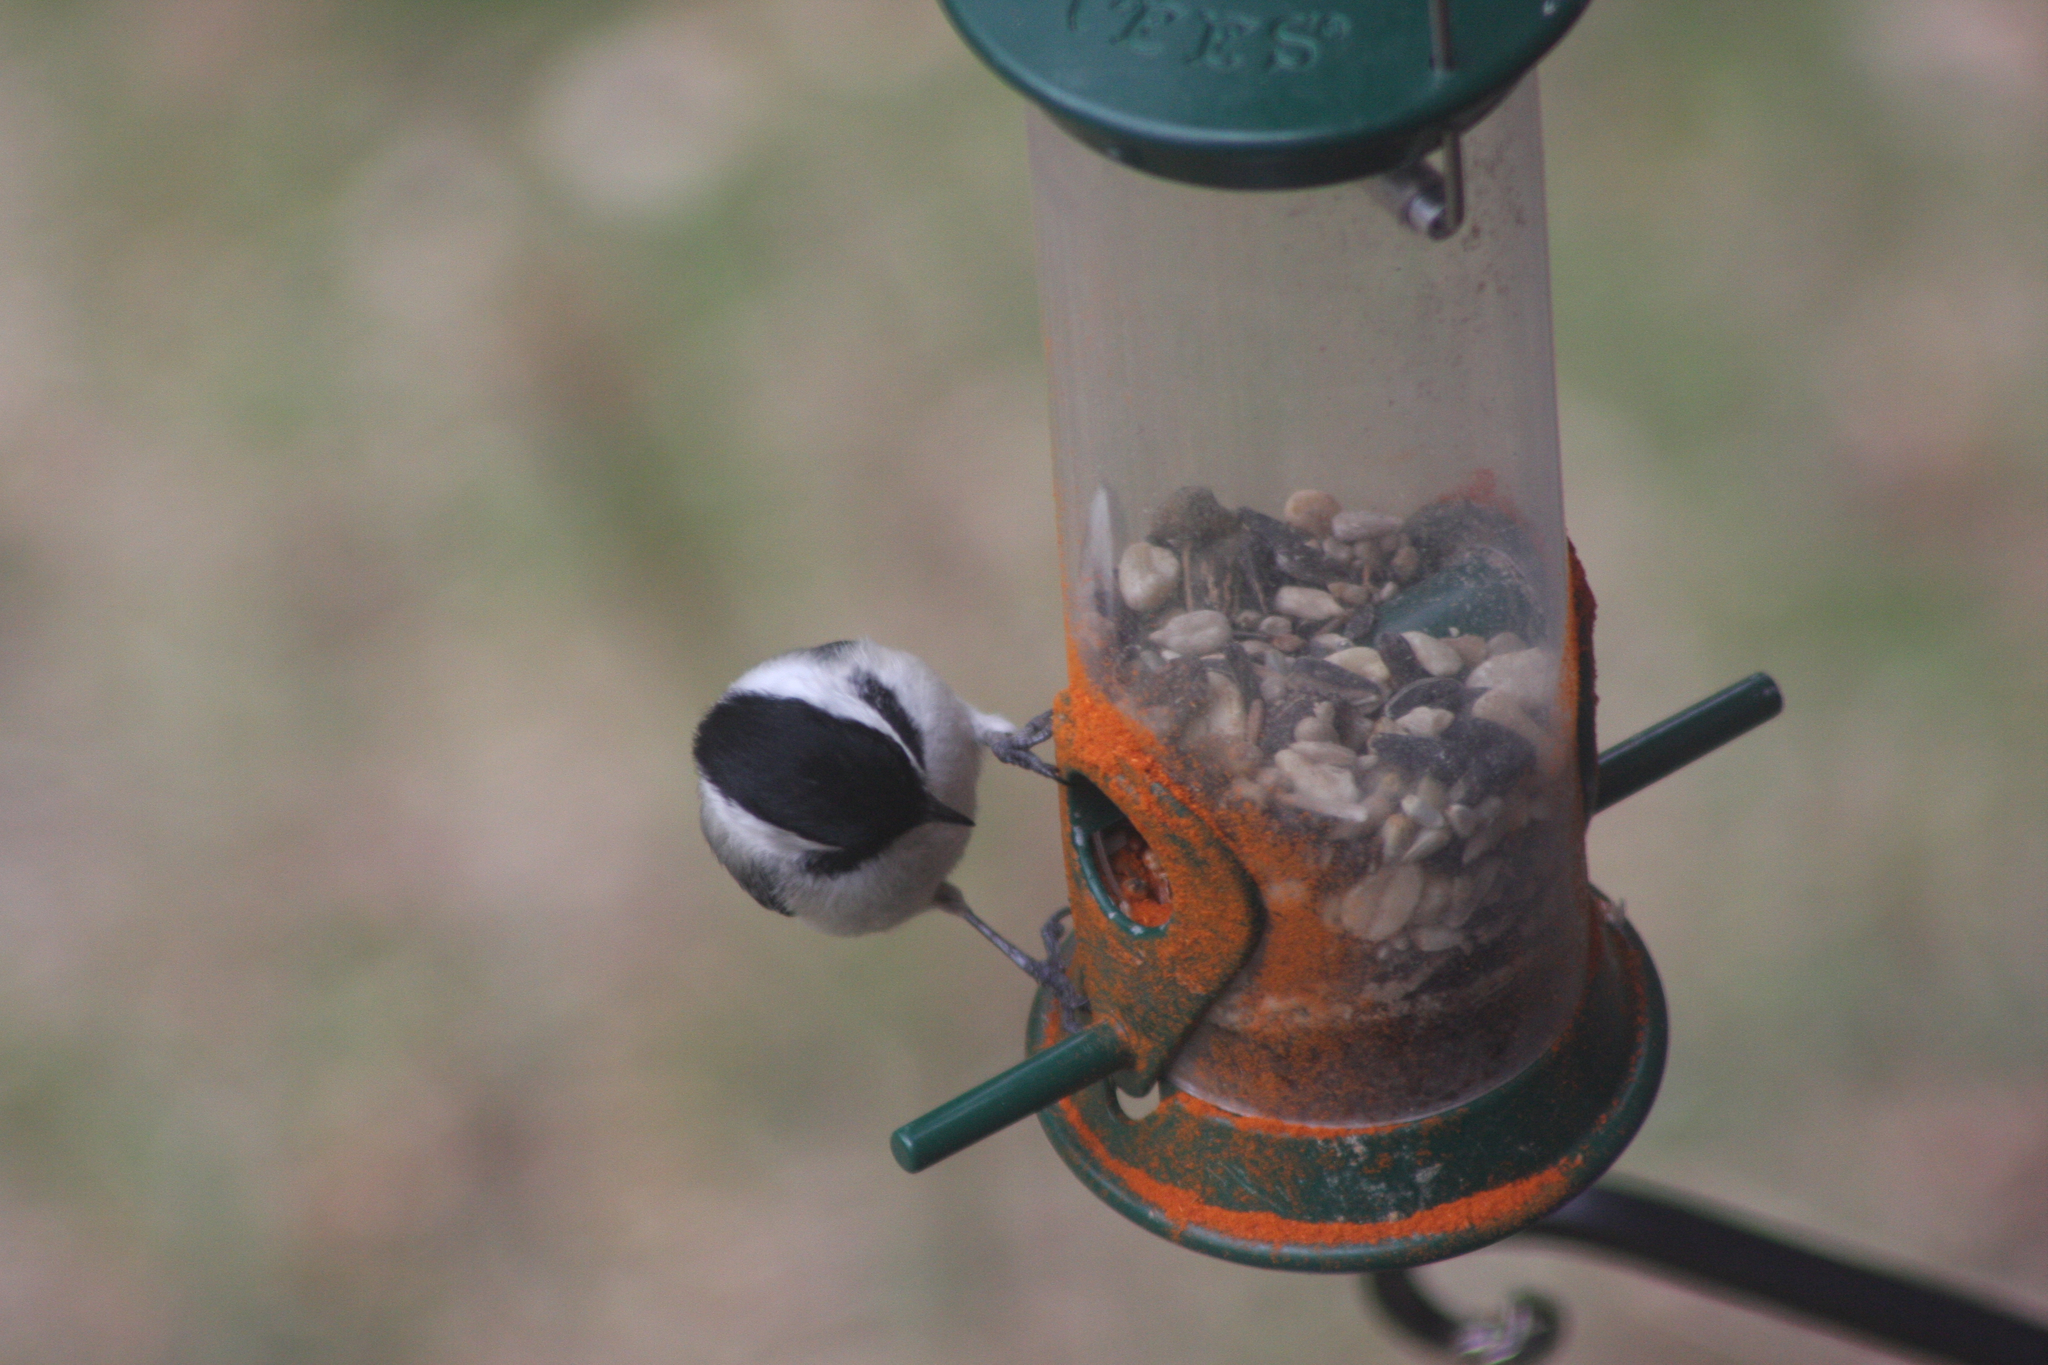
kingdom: Animalia
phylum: Chordata
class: Aves
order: Passeriformes
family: Paridae
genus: Poecile
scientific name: Poecile atricapillus
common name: Black-capped chickadee
